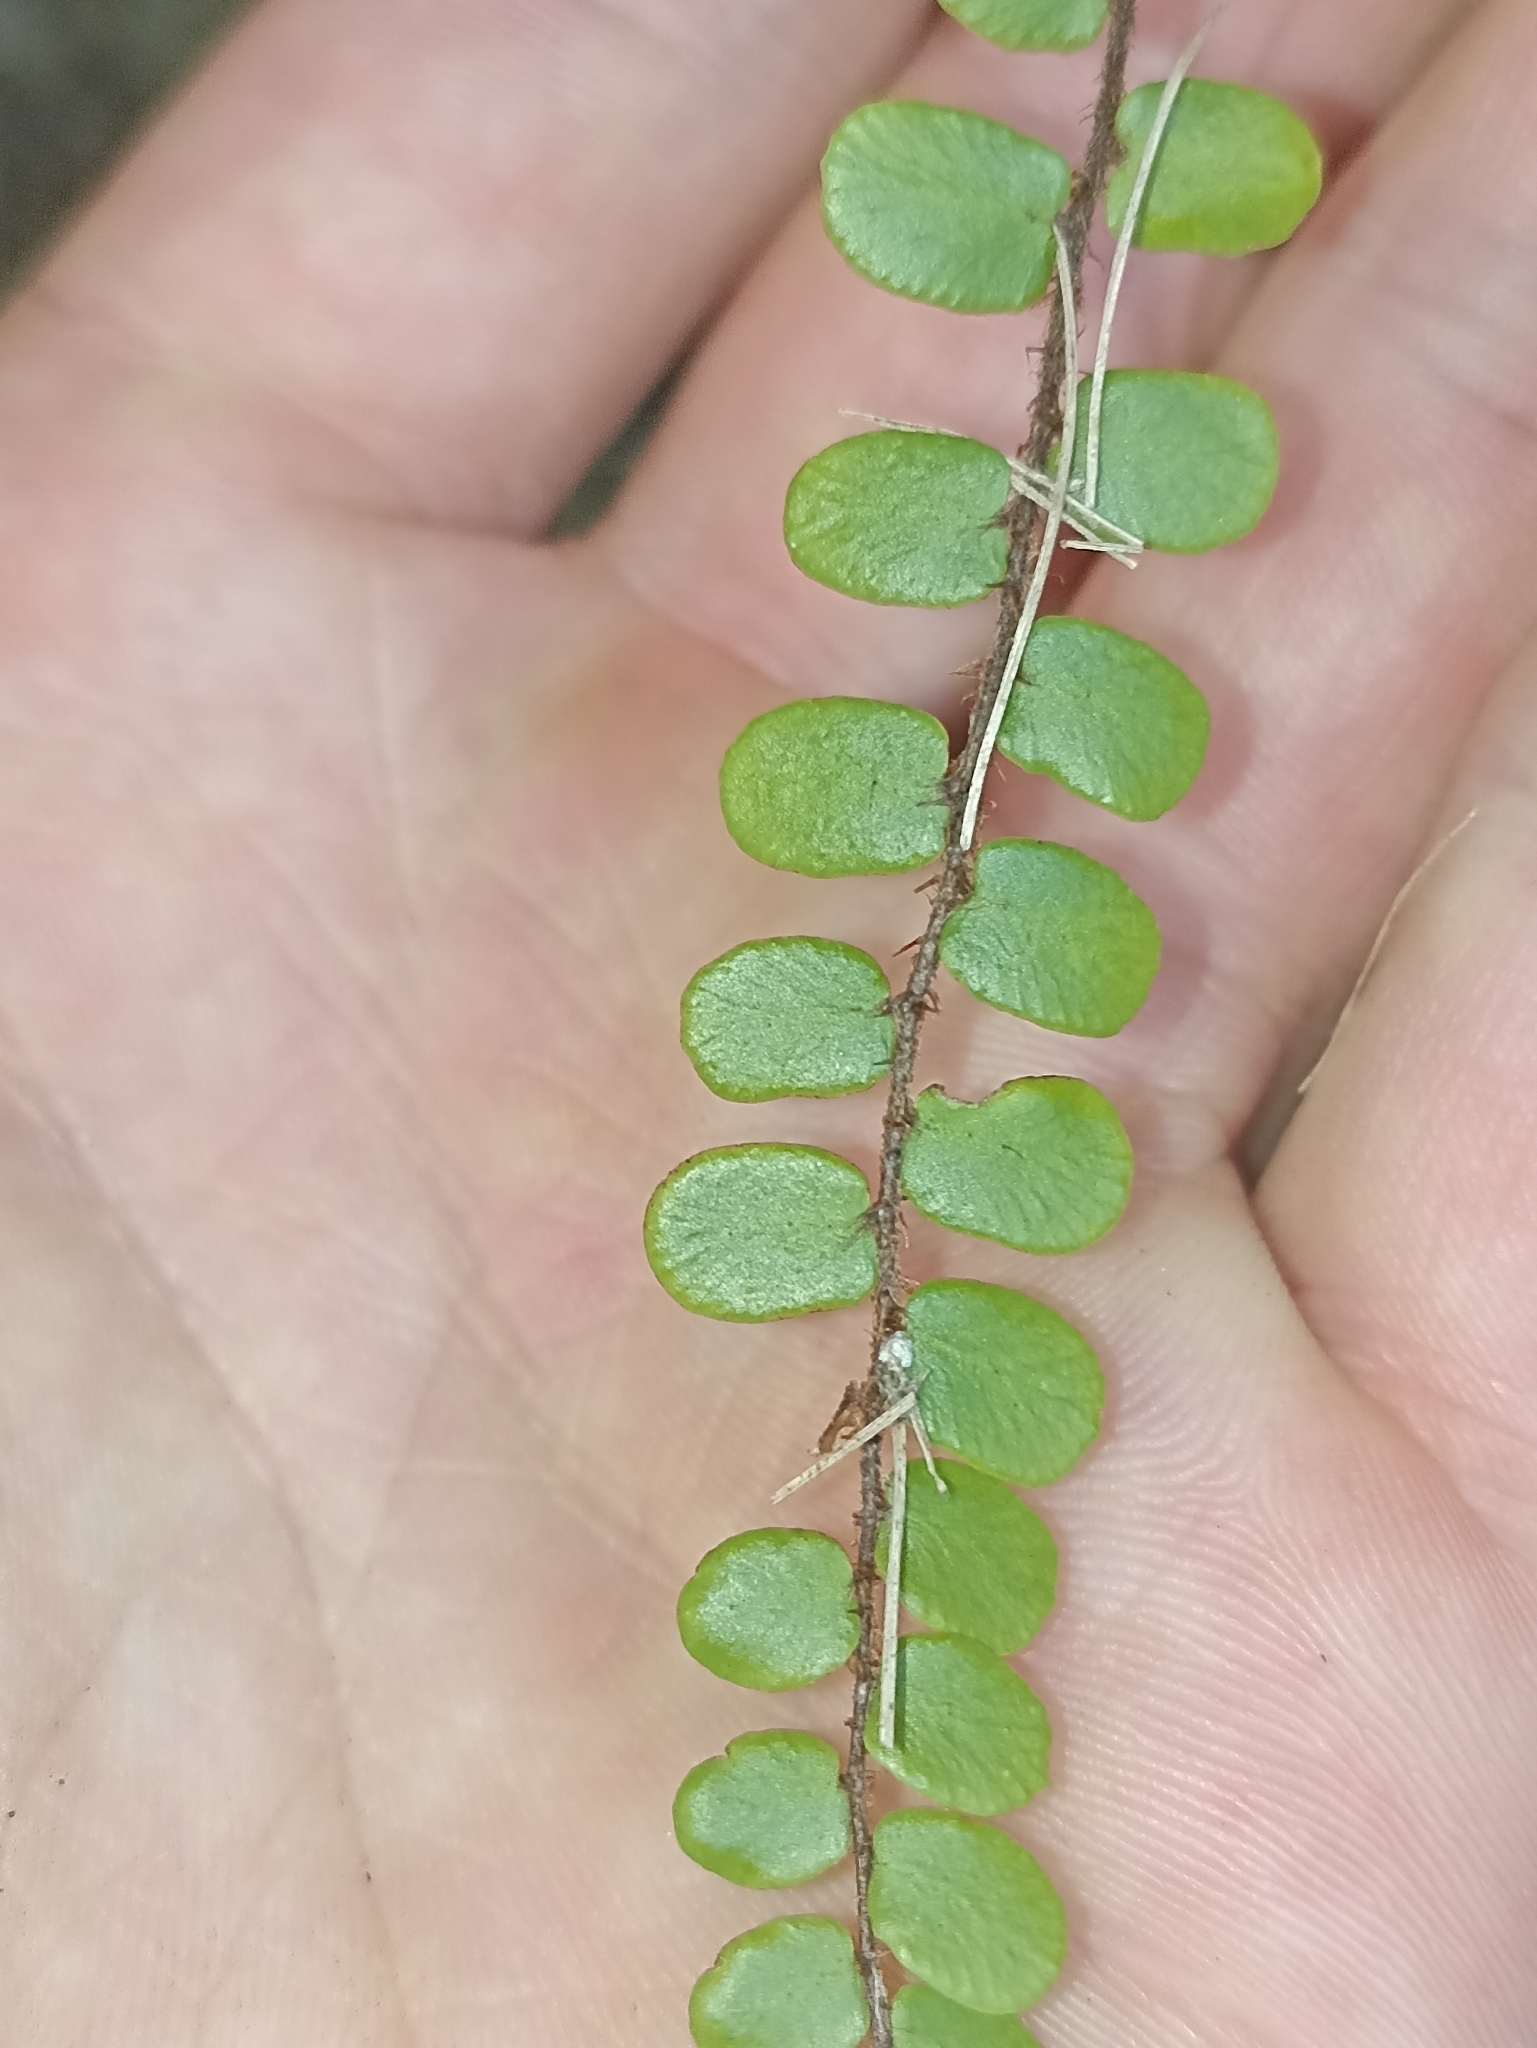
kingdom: Plantae
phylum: Tracheophyta
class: Polypodiopsida
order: Polypodiales
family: Pteridaceae
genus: Pellaea
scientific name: Pellaea rotundifolia
